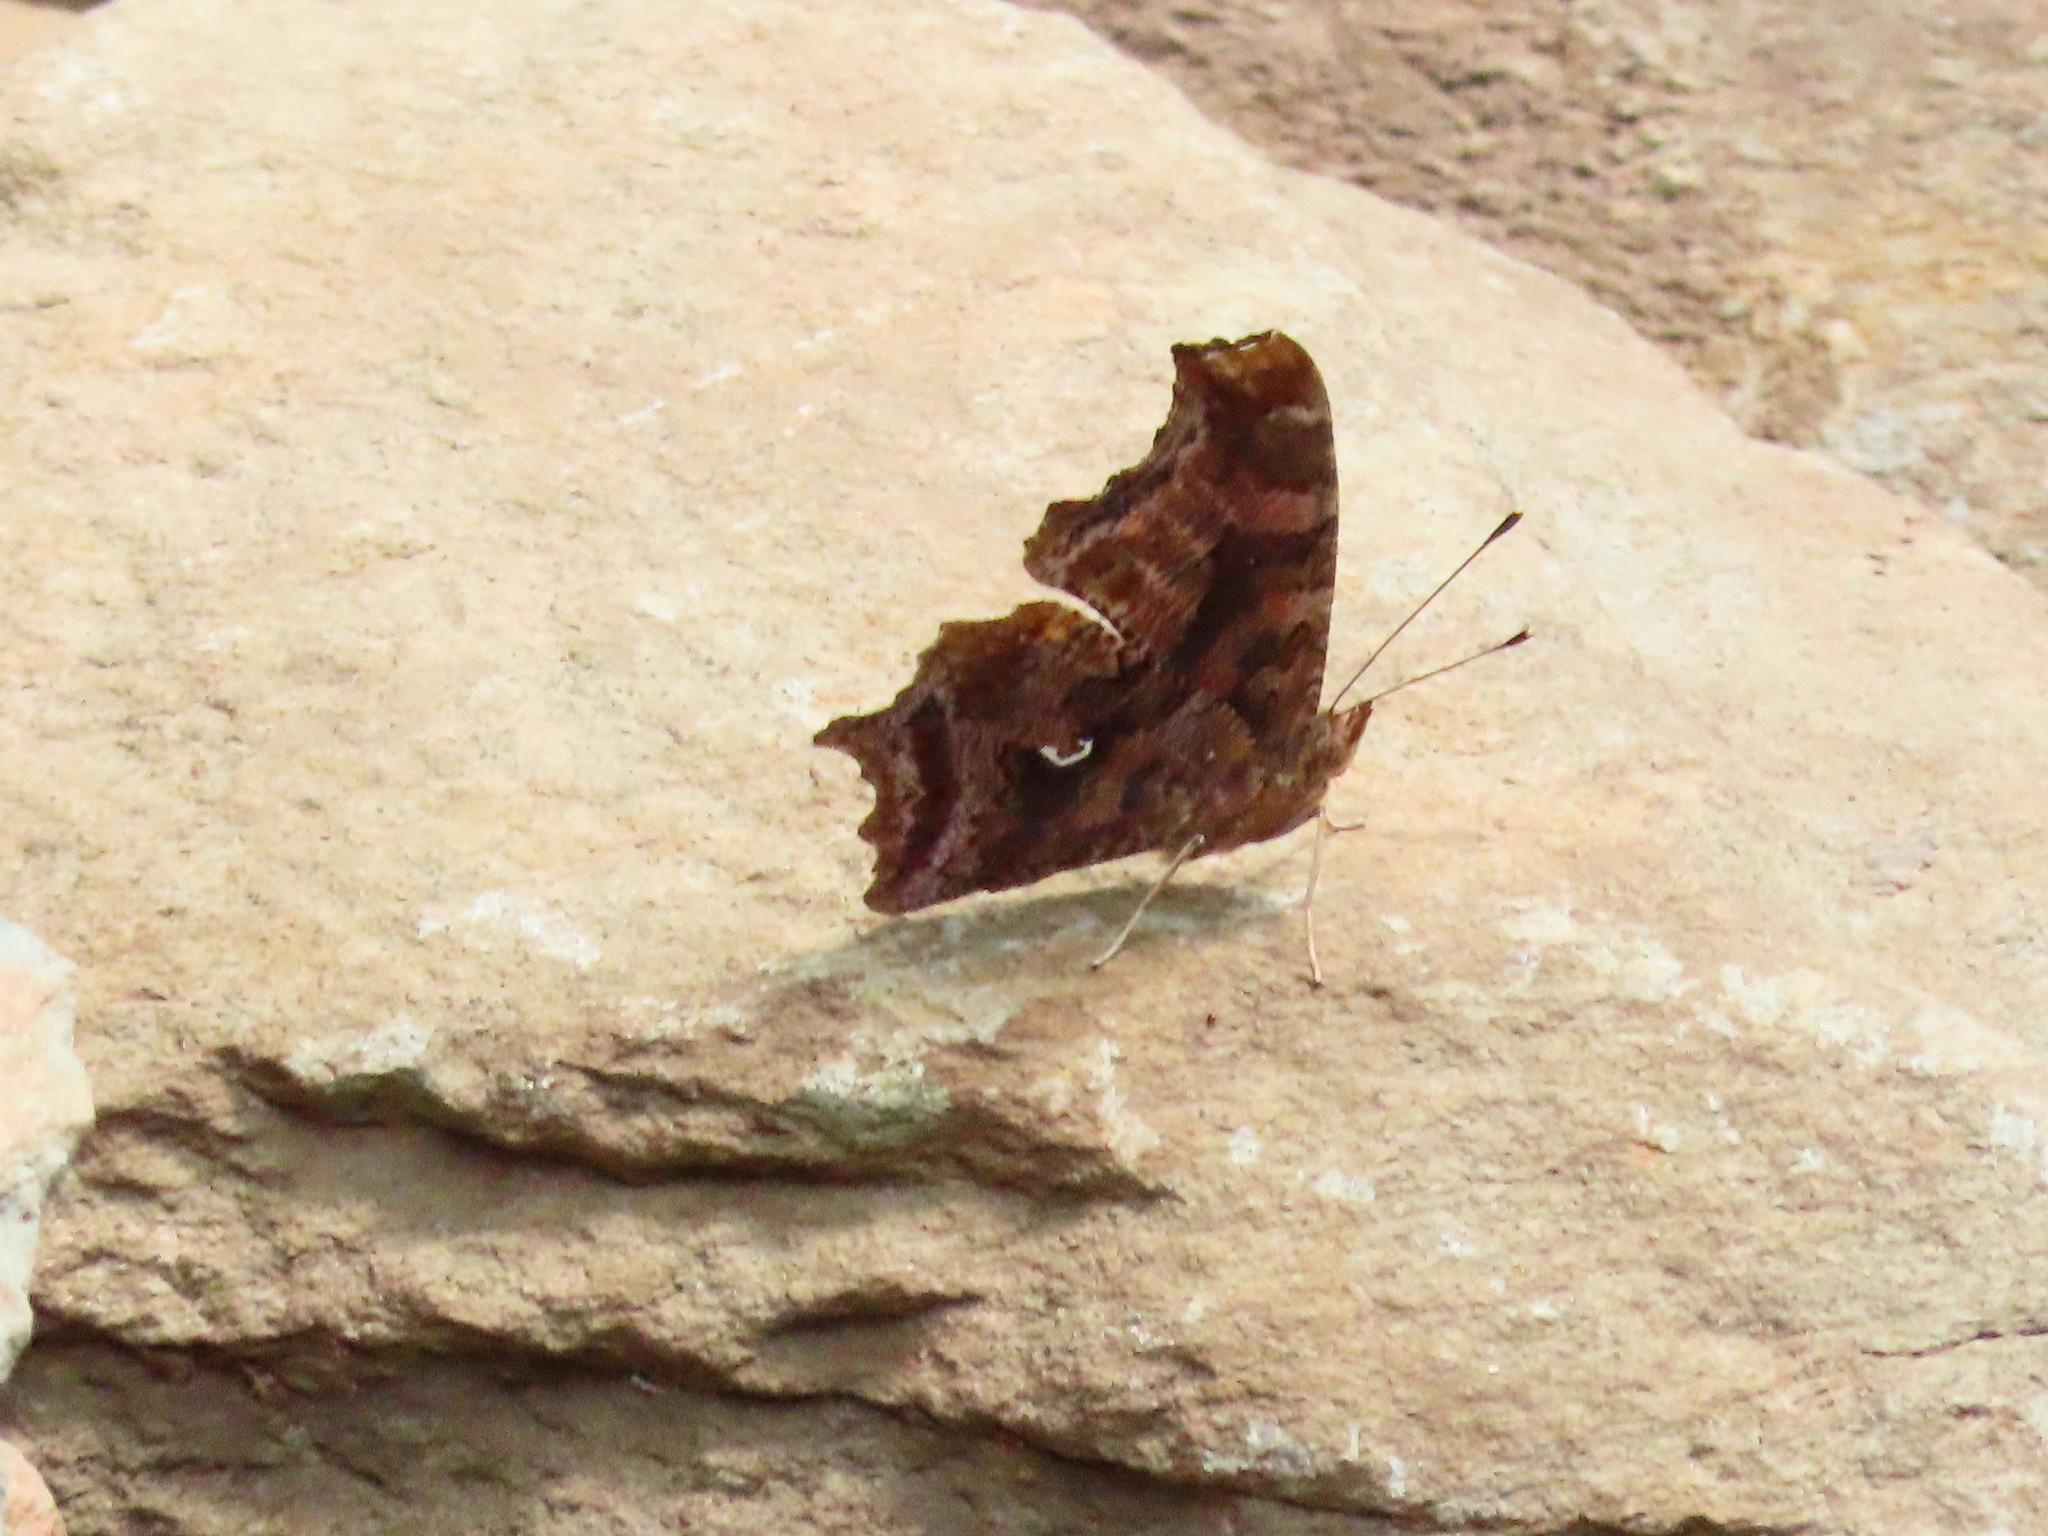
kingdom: Animalia
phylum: Arthropoda
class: Insecta
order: Lepidoptera
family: Nymphalidae
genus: Polygonia
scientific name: Polygonia comma
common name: Eastern comma
